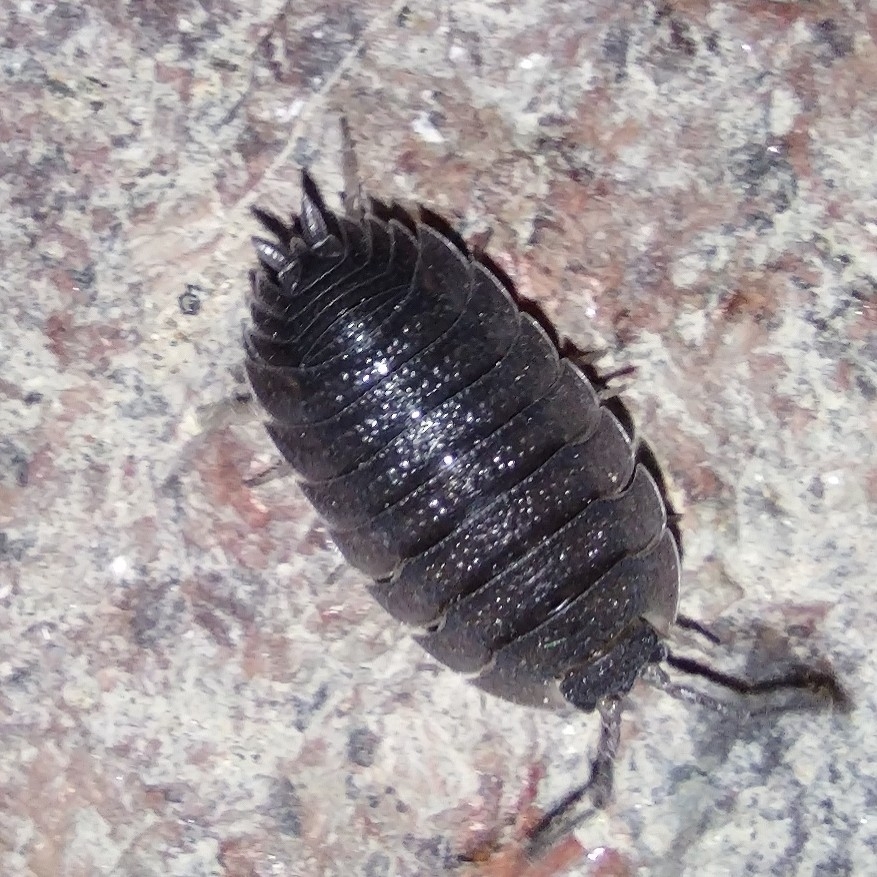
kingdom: Animalia
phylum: Arthropoda
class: Malacostraca
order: Isopoda
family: Porcellionidae
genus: Porcellio
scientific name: Porcellio scaber
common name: Common rough woodlouse
